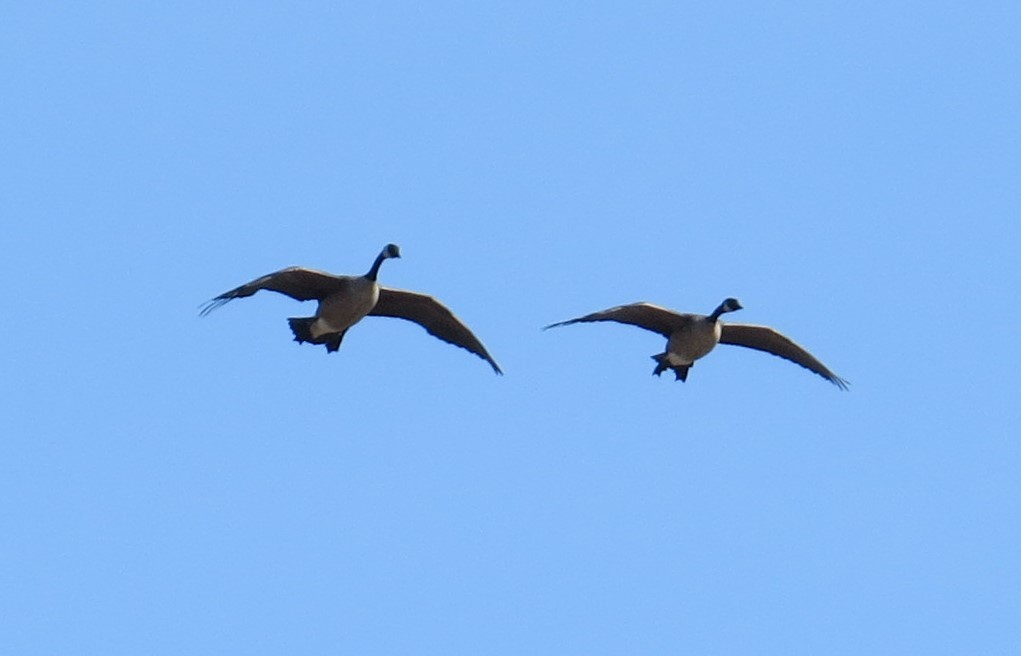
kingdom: Animalia
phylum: Chordata
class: Aves
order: Anseriformes
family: Anatidae
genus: Branta
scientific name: Branta canadensis
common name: Canada goose
